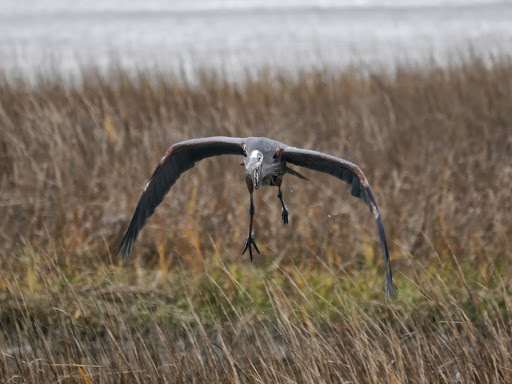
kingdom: Animalia
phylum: Chordata
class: Aves
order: Pelecaniformes
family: Ardeidae
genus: Ardea
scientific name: Ardea herodias
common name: Great blue heron
